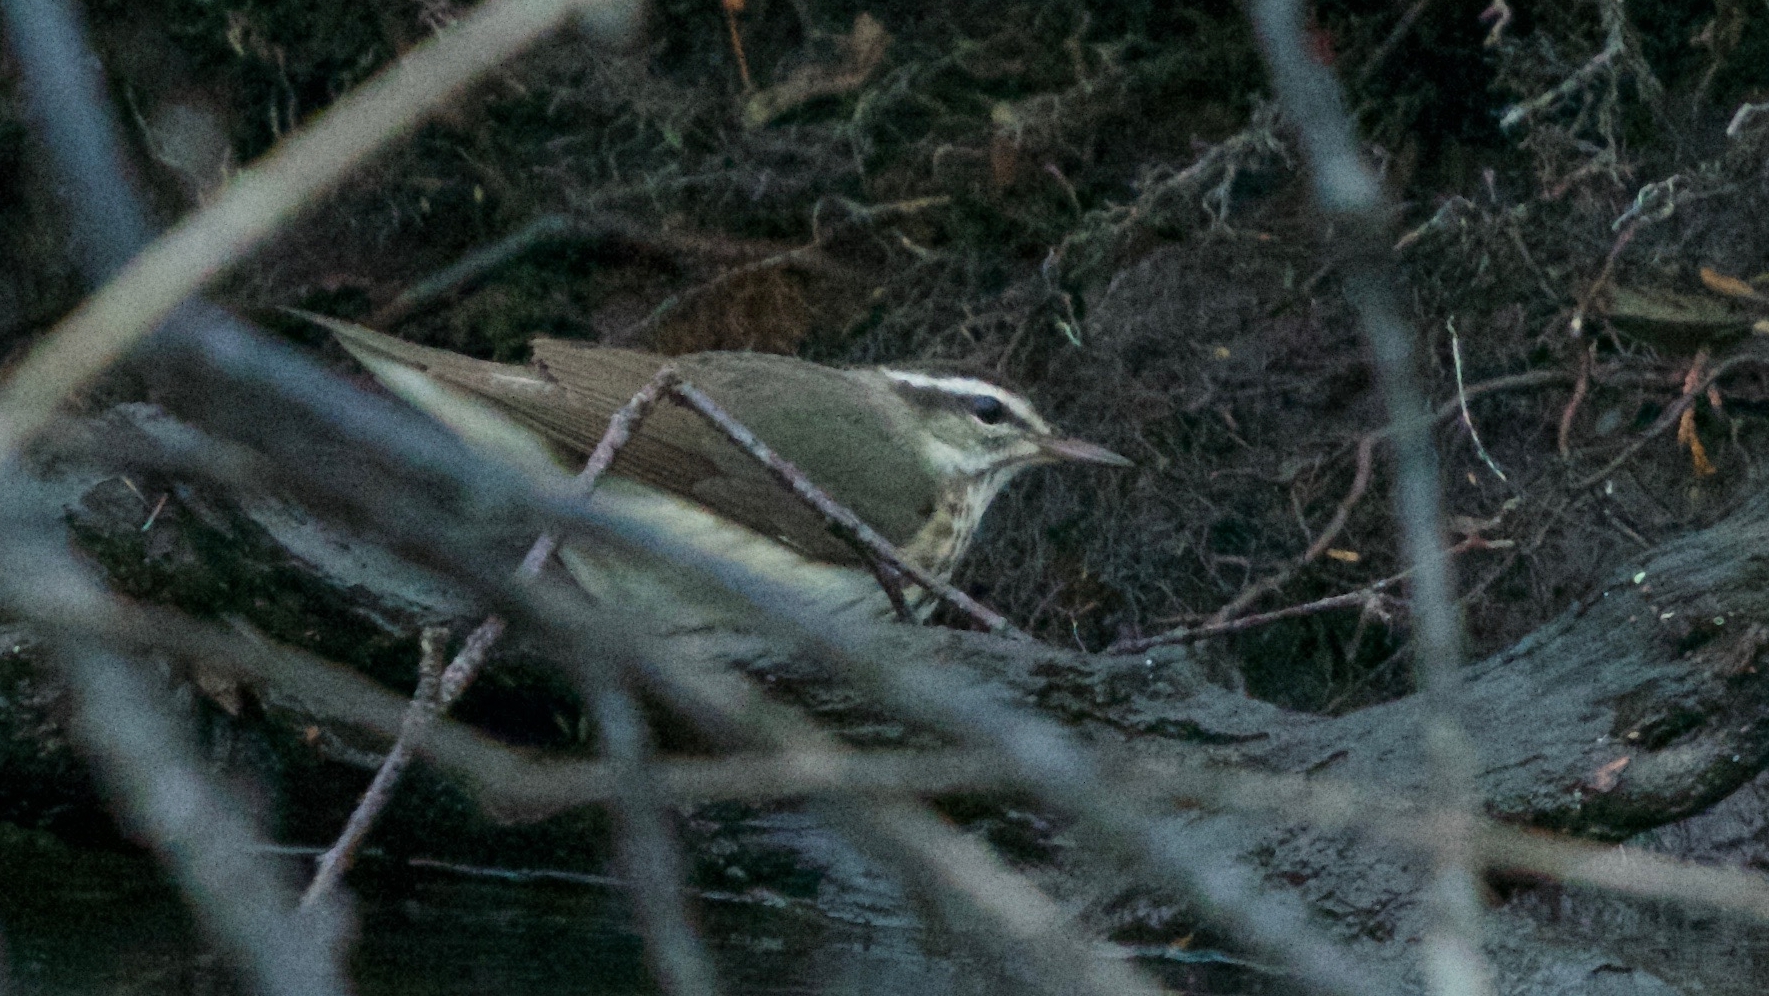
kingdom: Animalia
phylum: Chordata
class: Aves
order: Passeriformes
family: Parulidae
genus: Parkesia
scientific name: Parkesia motacilla
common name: Louisiana waterthrush
